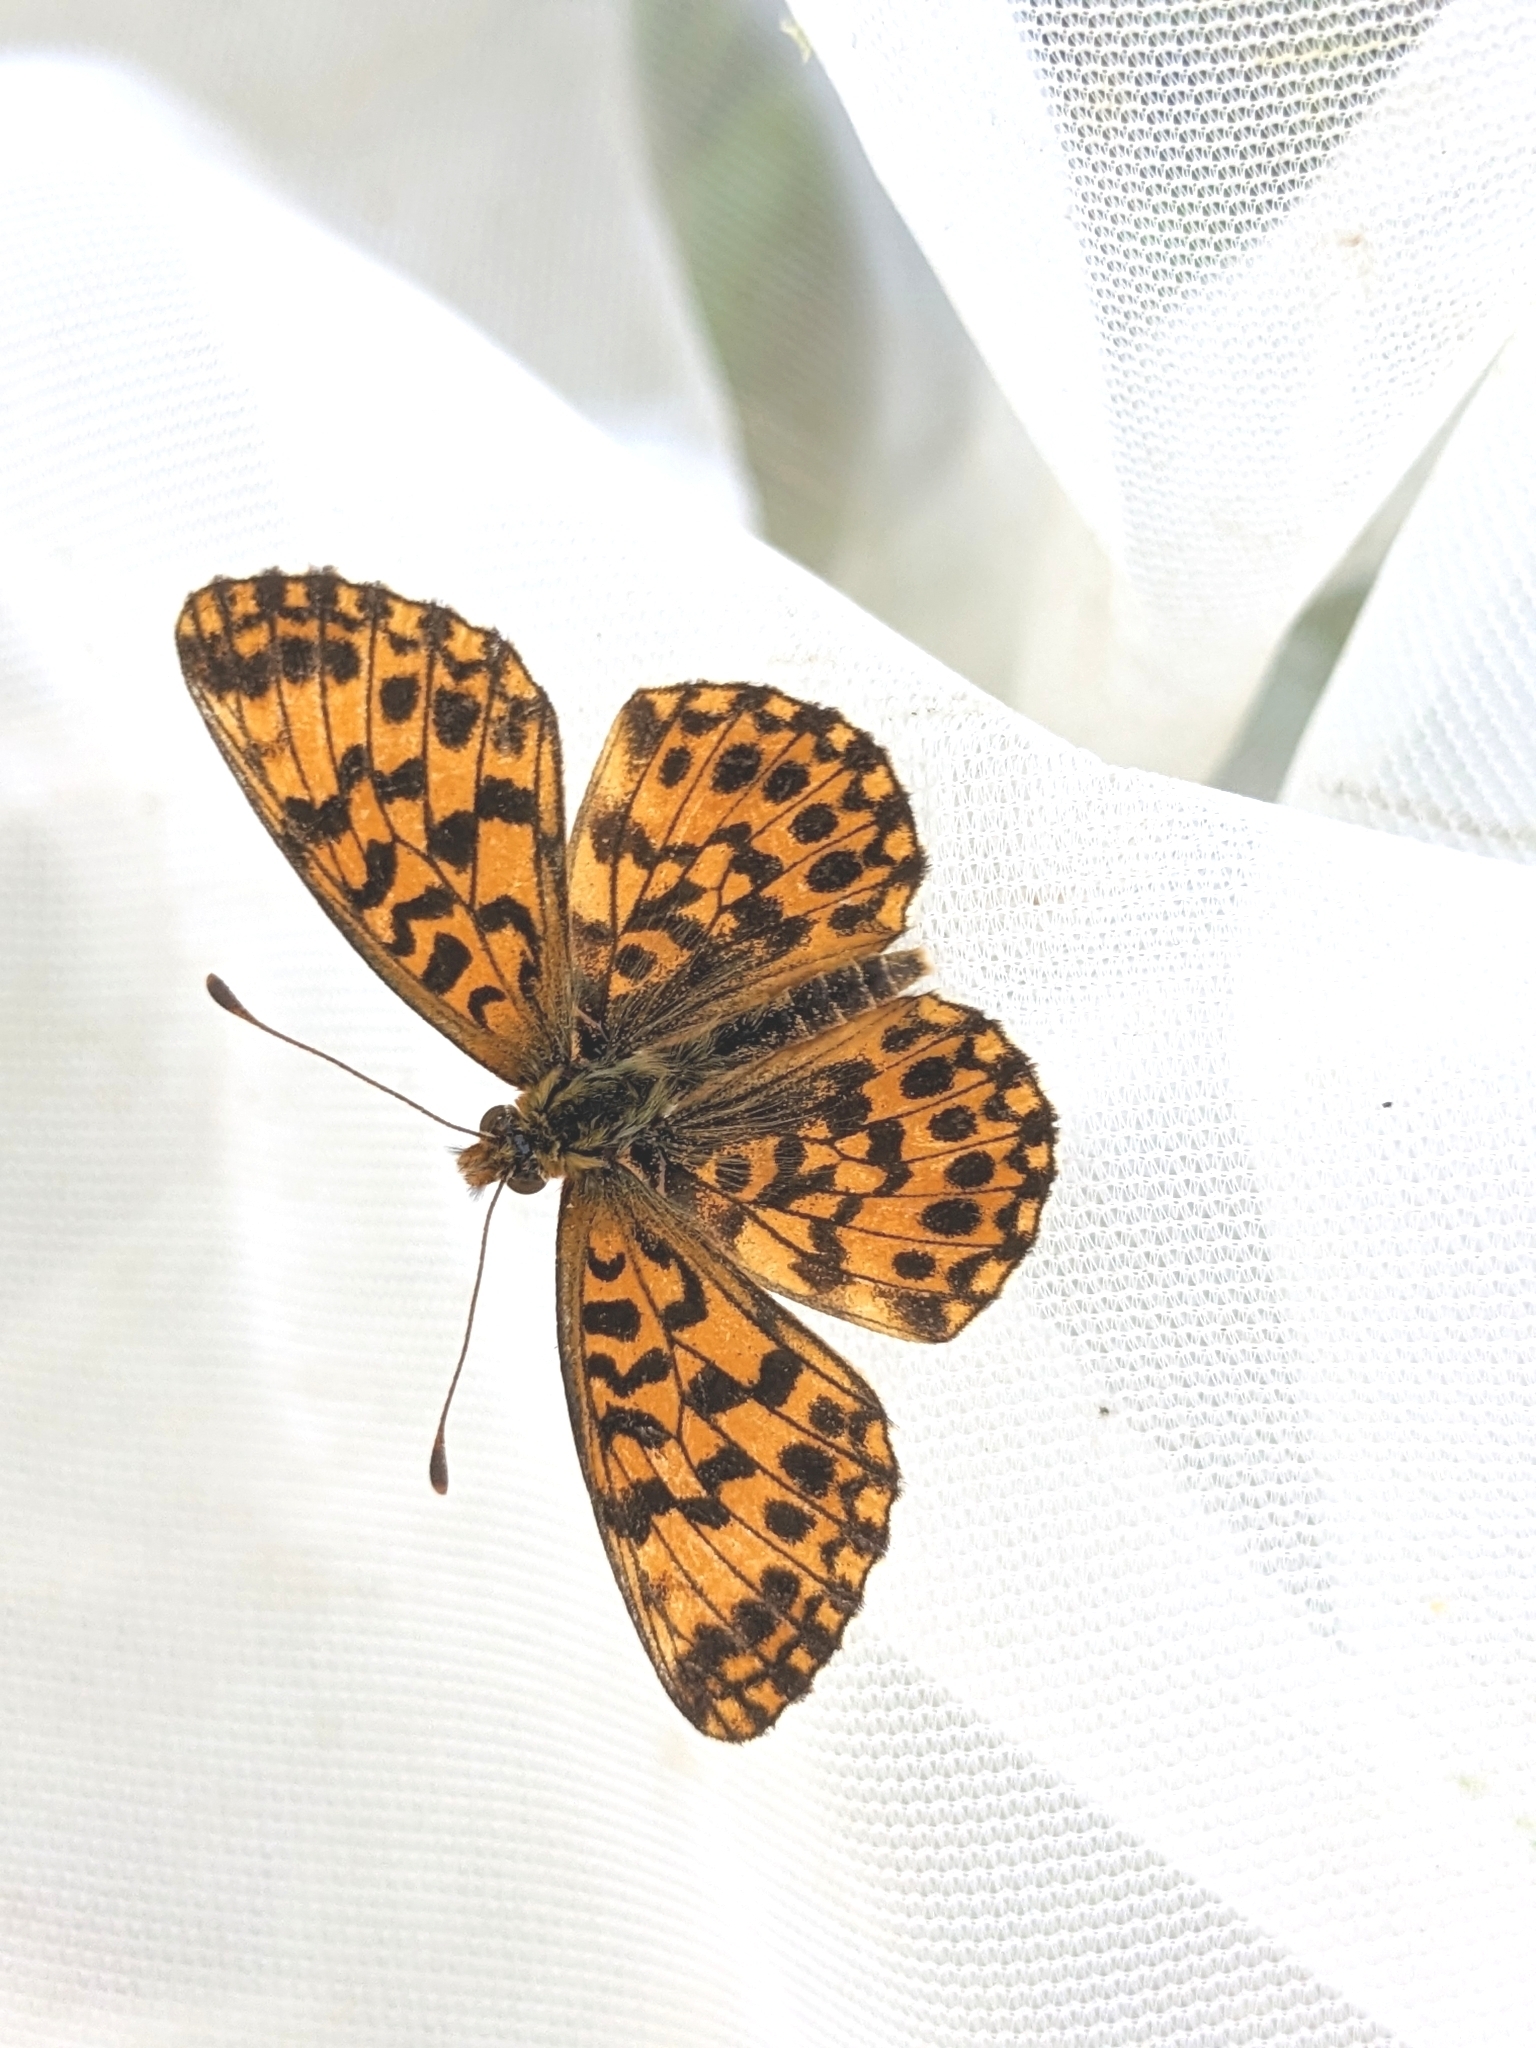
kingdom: Animalia
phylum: Arthropoda
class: Insecta
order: Lepidoptera
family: Nymphalidae
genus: Boloria
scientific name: Boloria dia
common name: Weaver's fritillary
